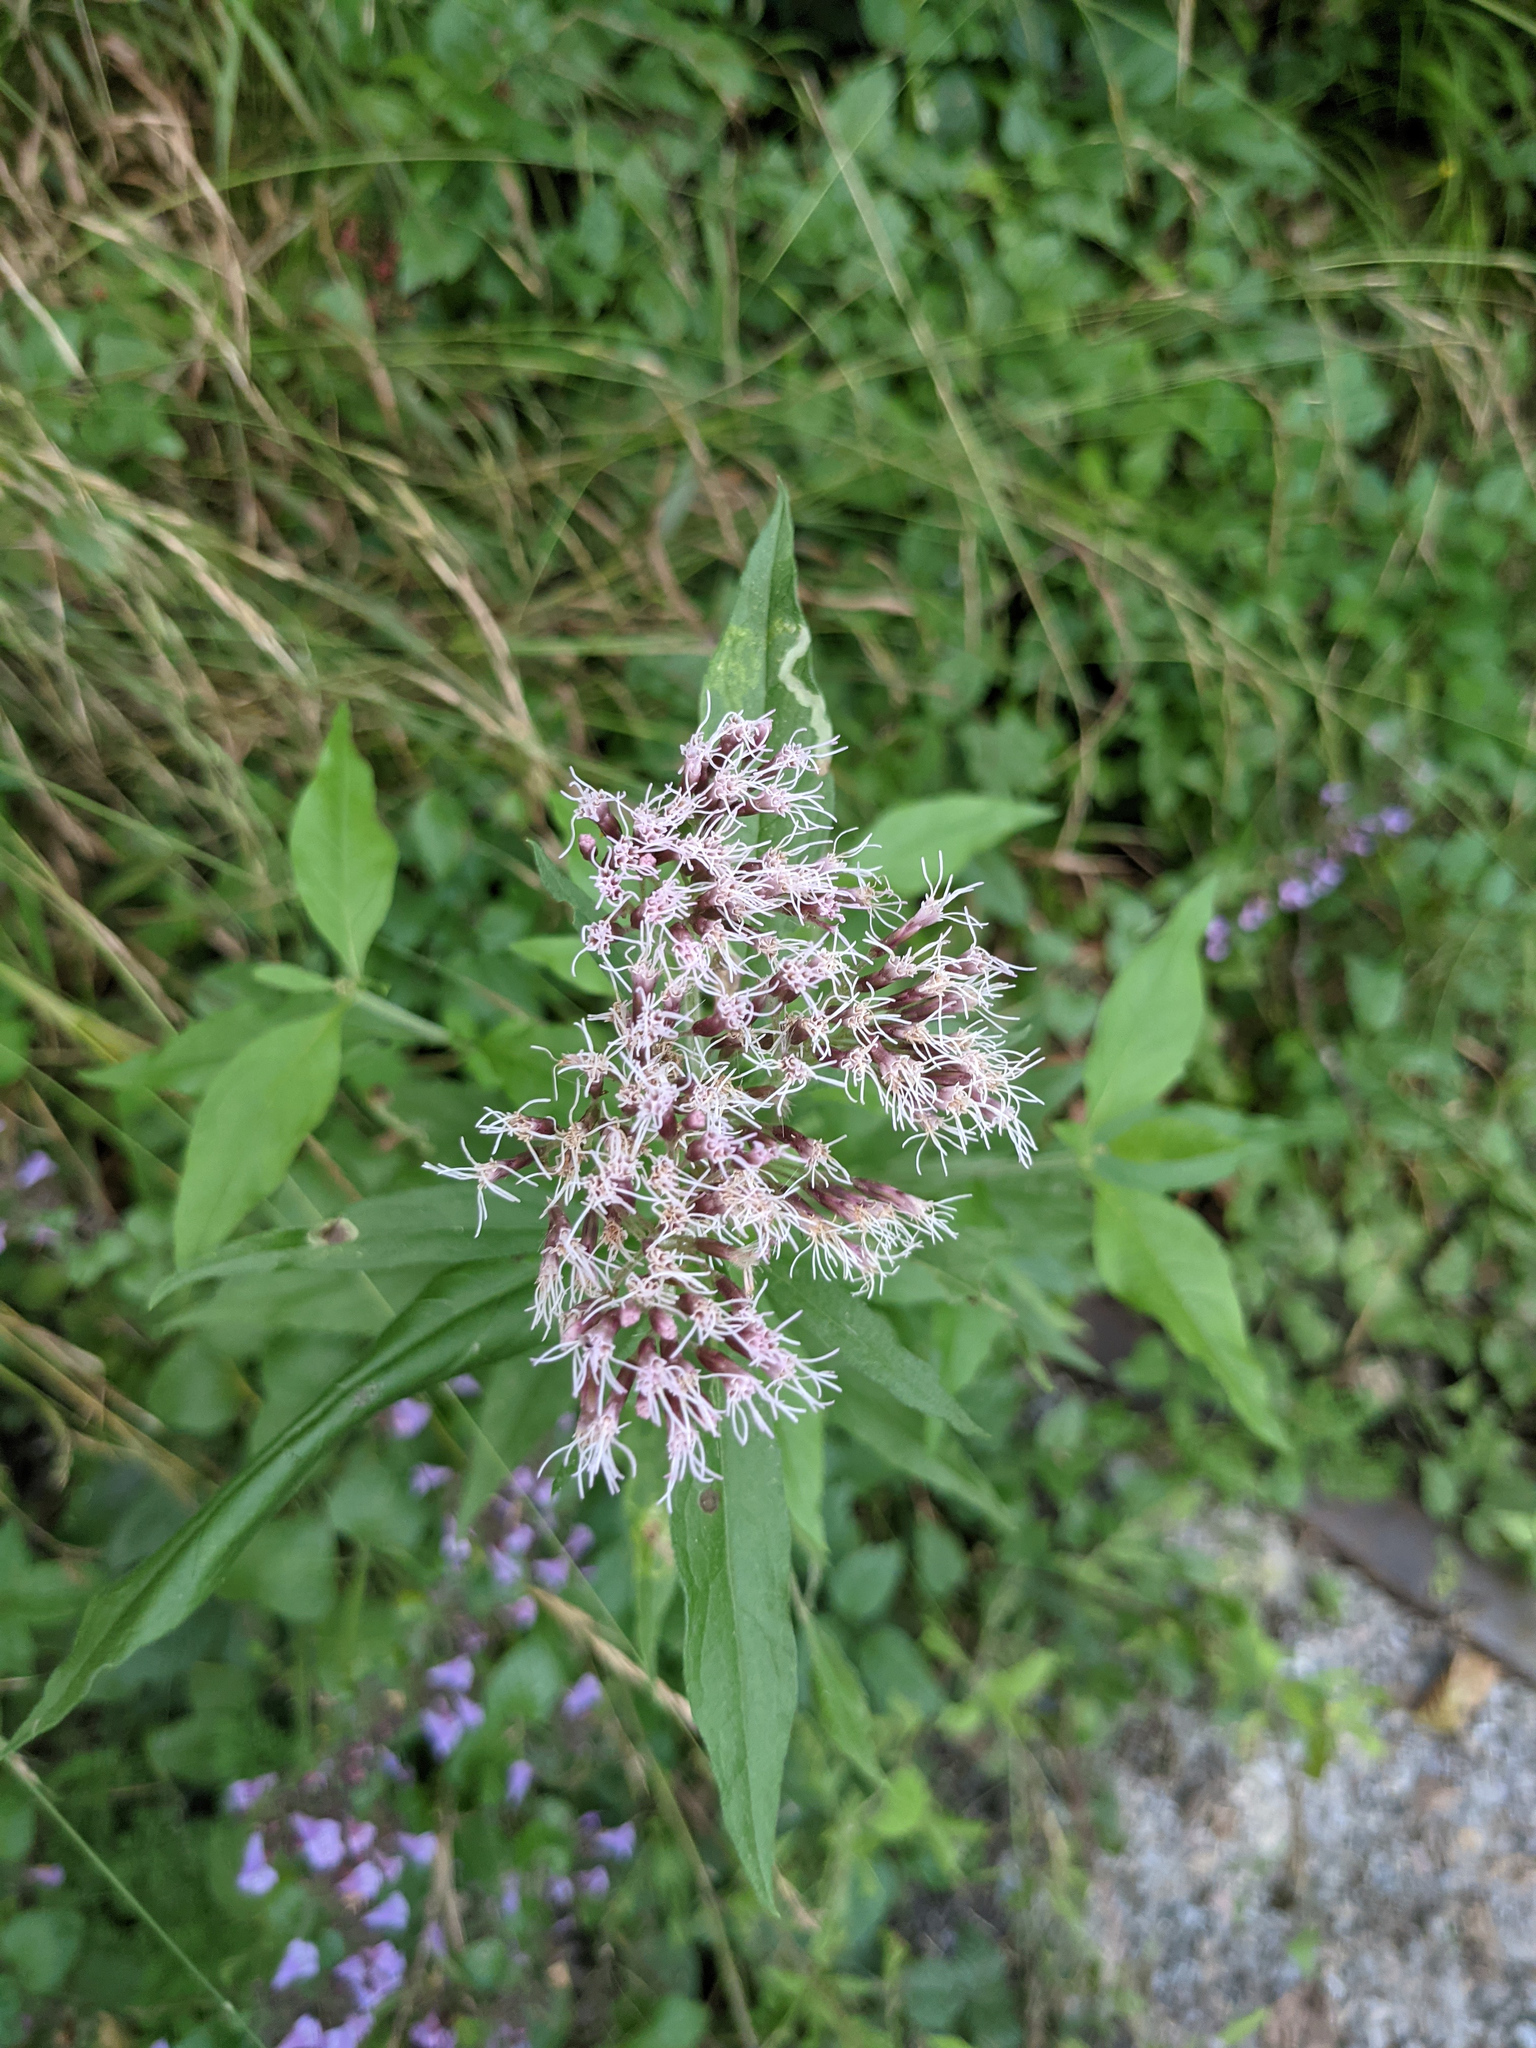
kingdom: Plantae
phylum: Tracheophyta
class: Magnoliopsida
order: Asterales
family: Asteraceae
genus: Eupatorium
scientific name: Eupatorium cannabinum
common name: Hemp-agrimony
